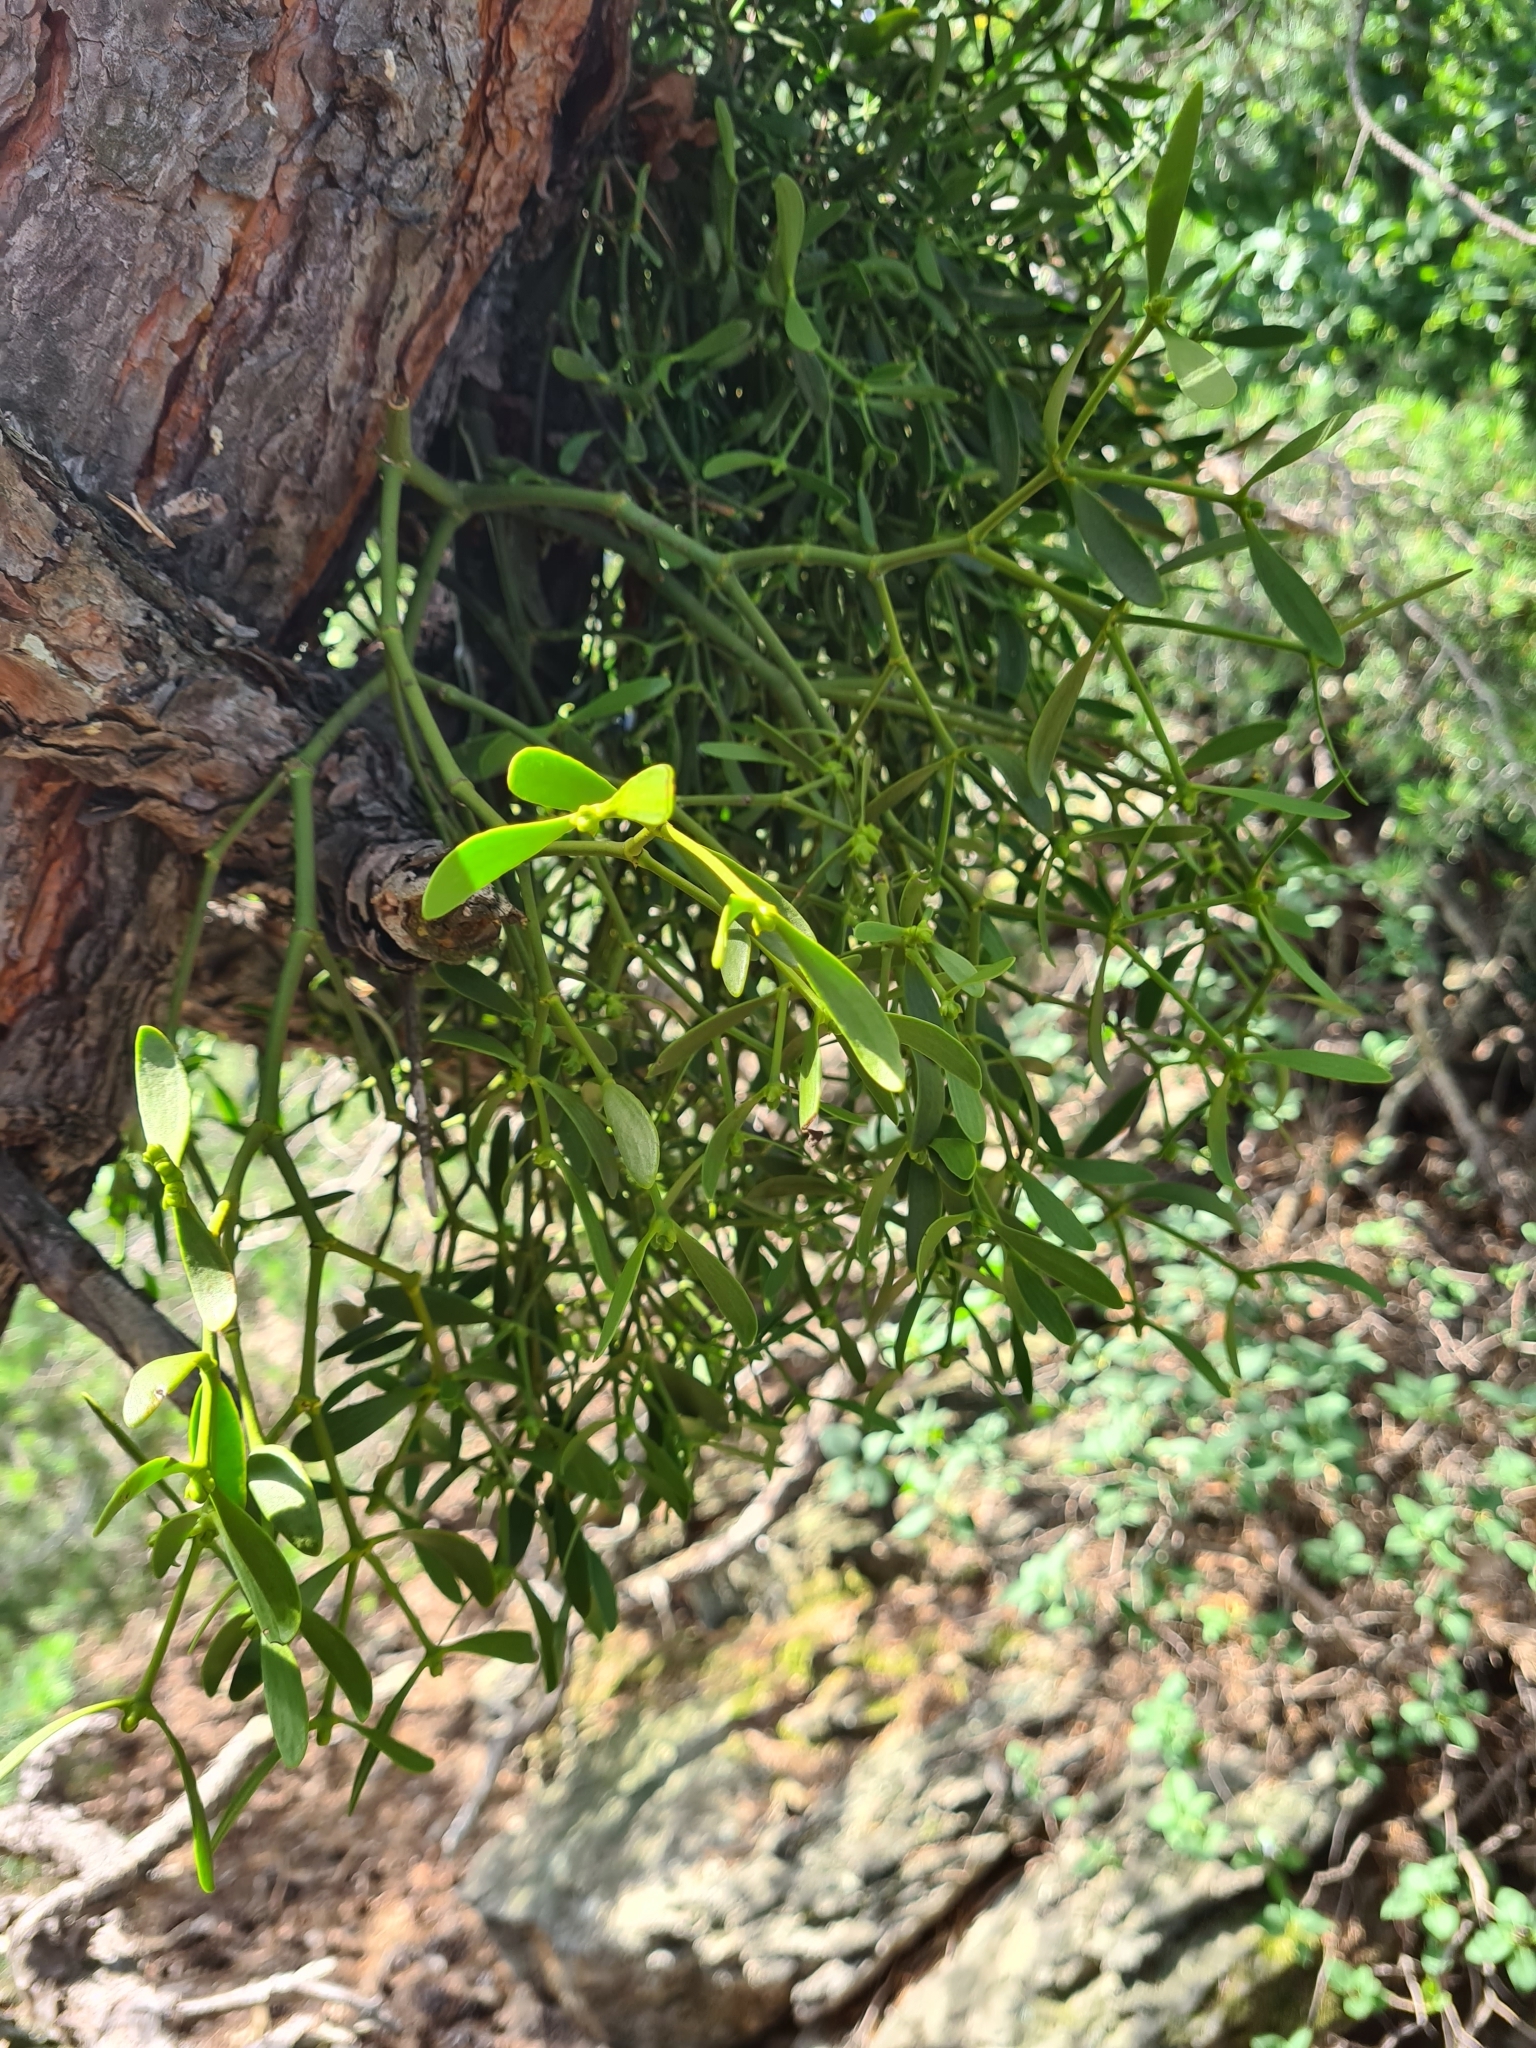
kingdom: Plantae
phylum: Tracheophyta
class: Magnoliopsida
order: Santalales
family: Viscaceae
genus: Viscum
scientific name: Viscum laxum
